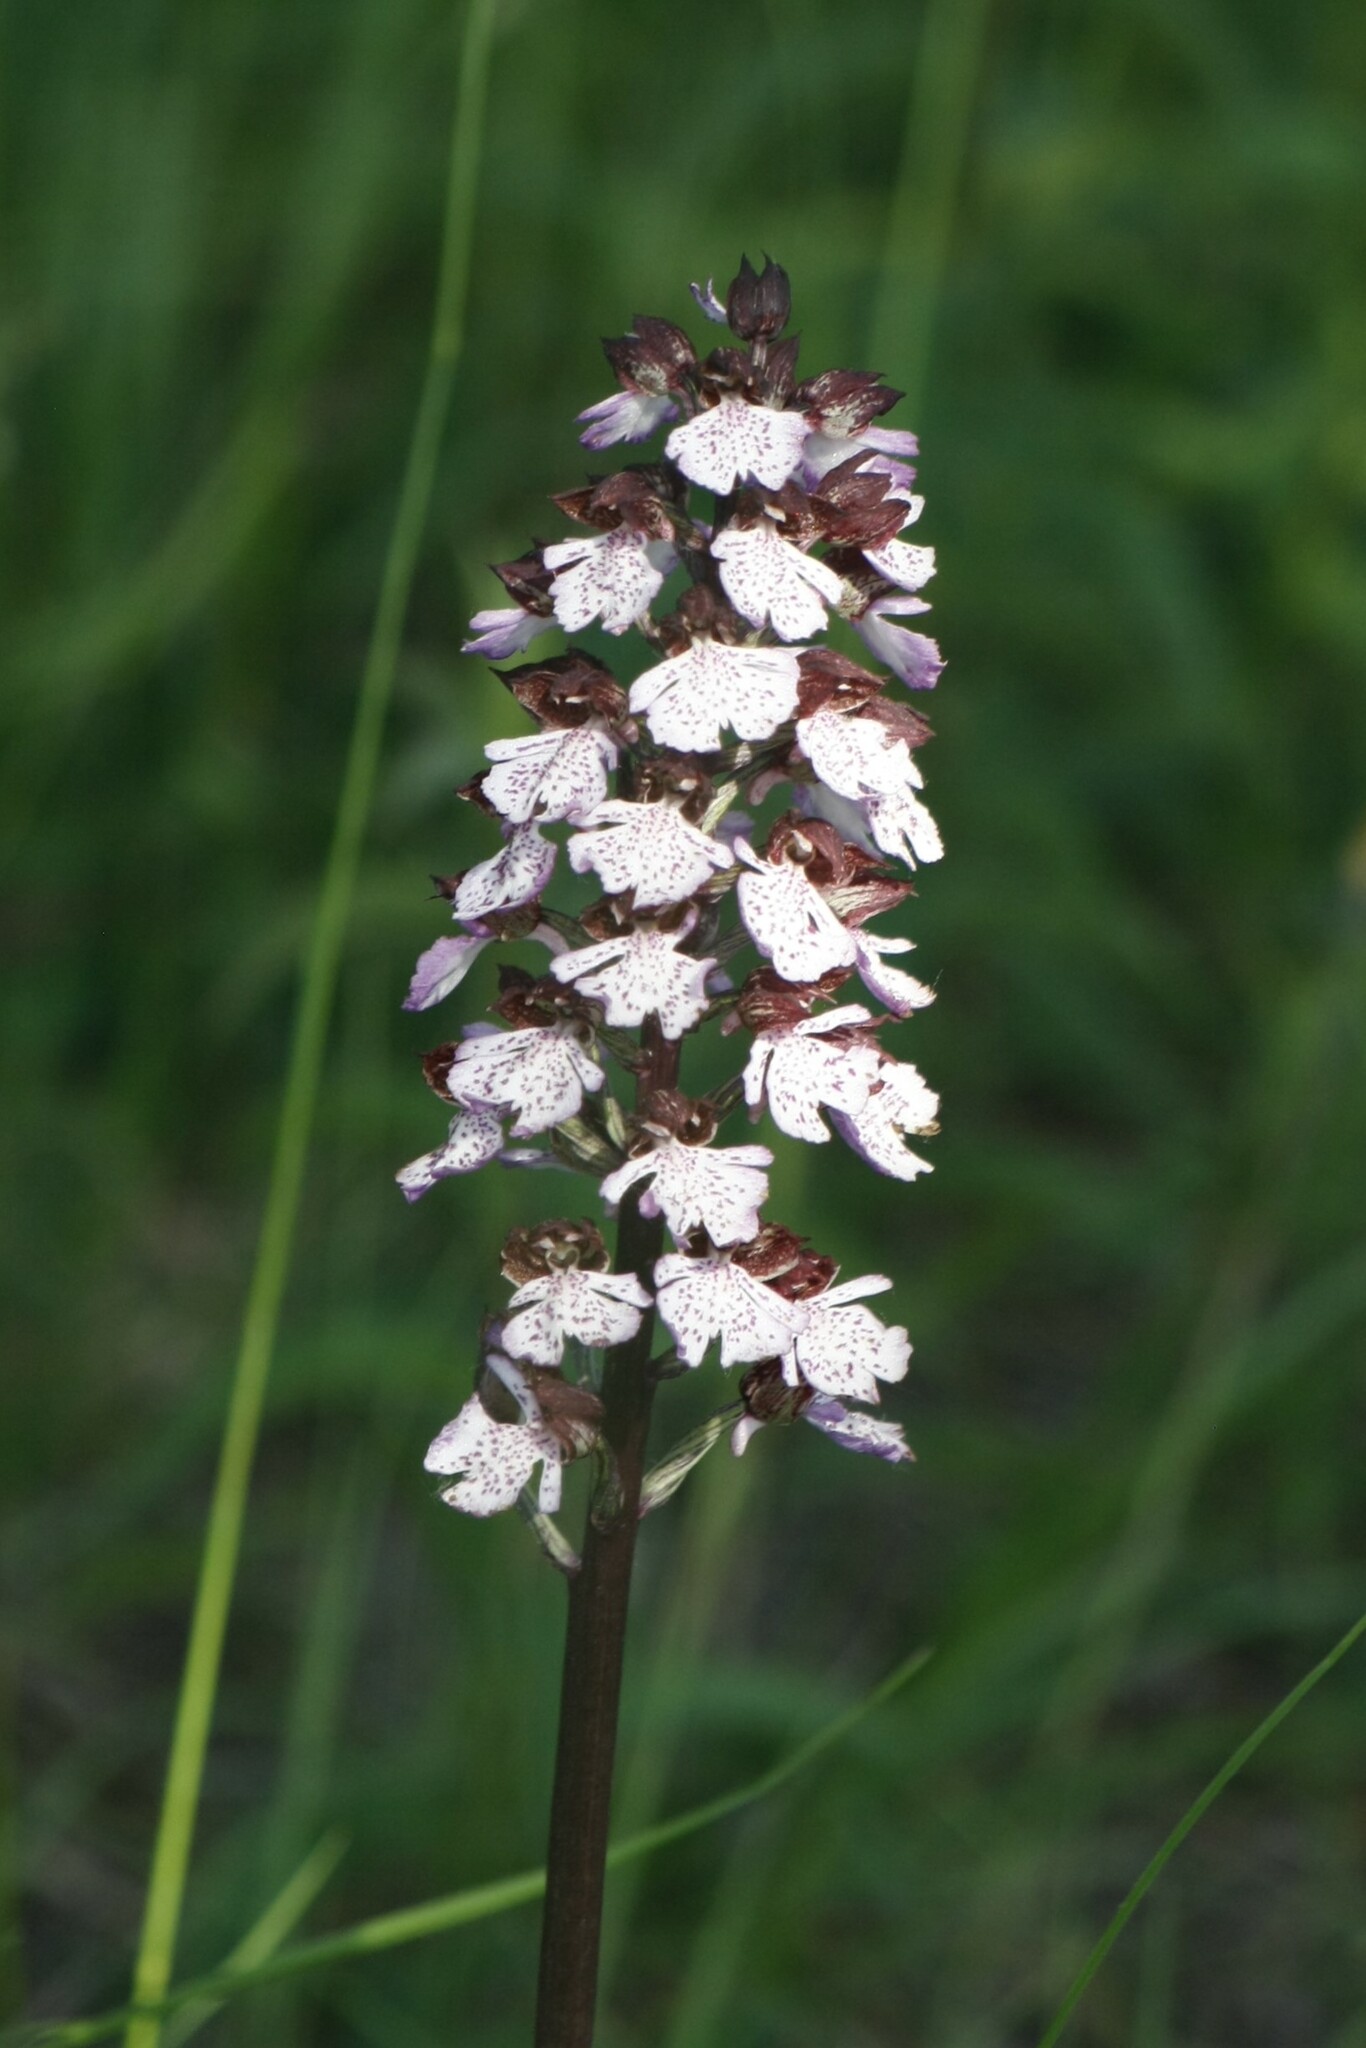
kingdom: Plantae
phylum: Tracheophyta
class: Liliopsida
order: Asparagales
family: Orchidaceae
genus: Orchis
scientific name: Orchis purpurea
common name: Lady orchid
